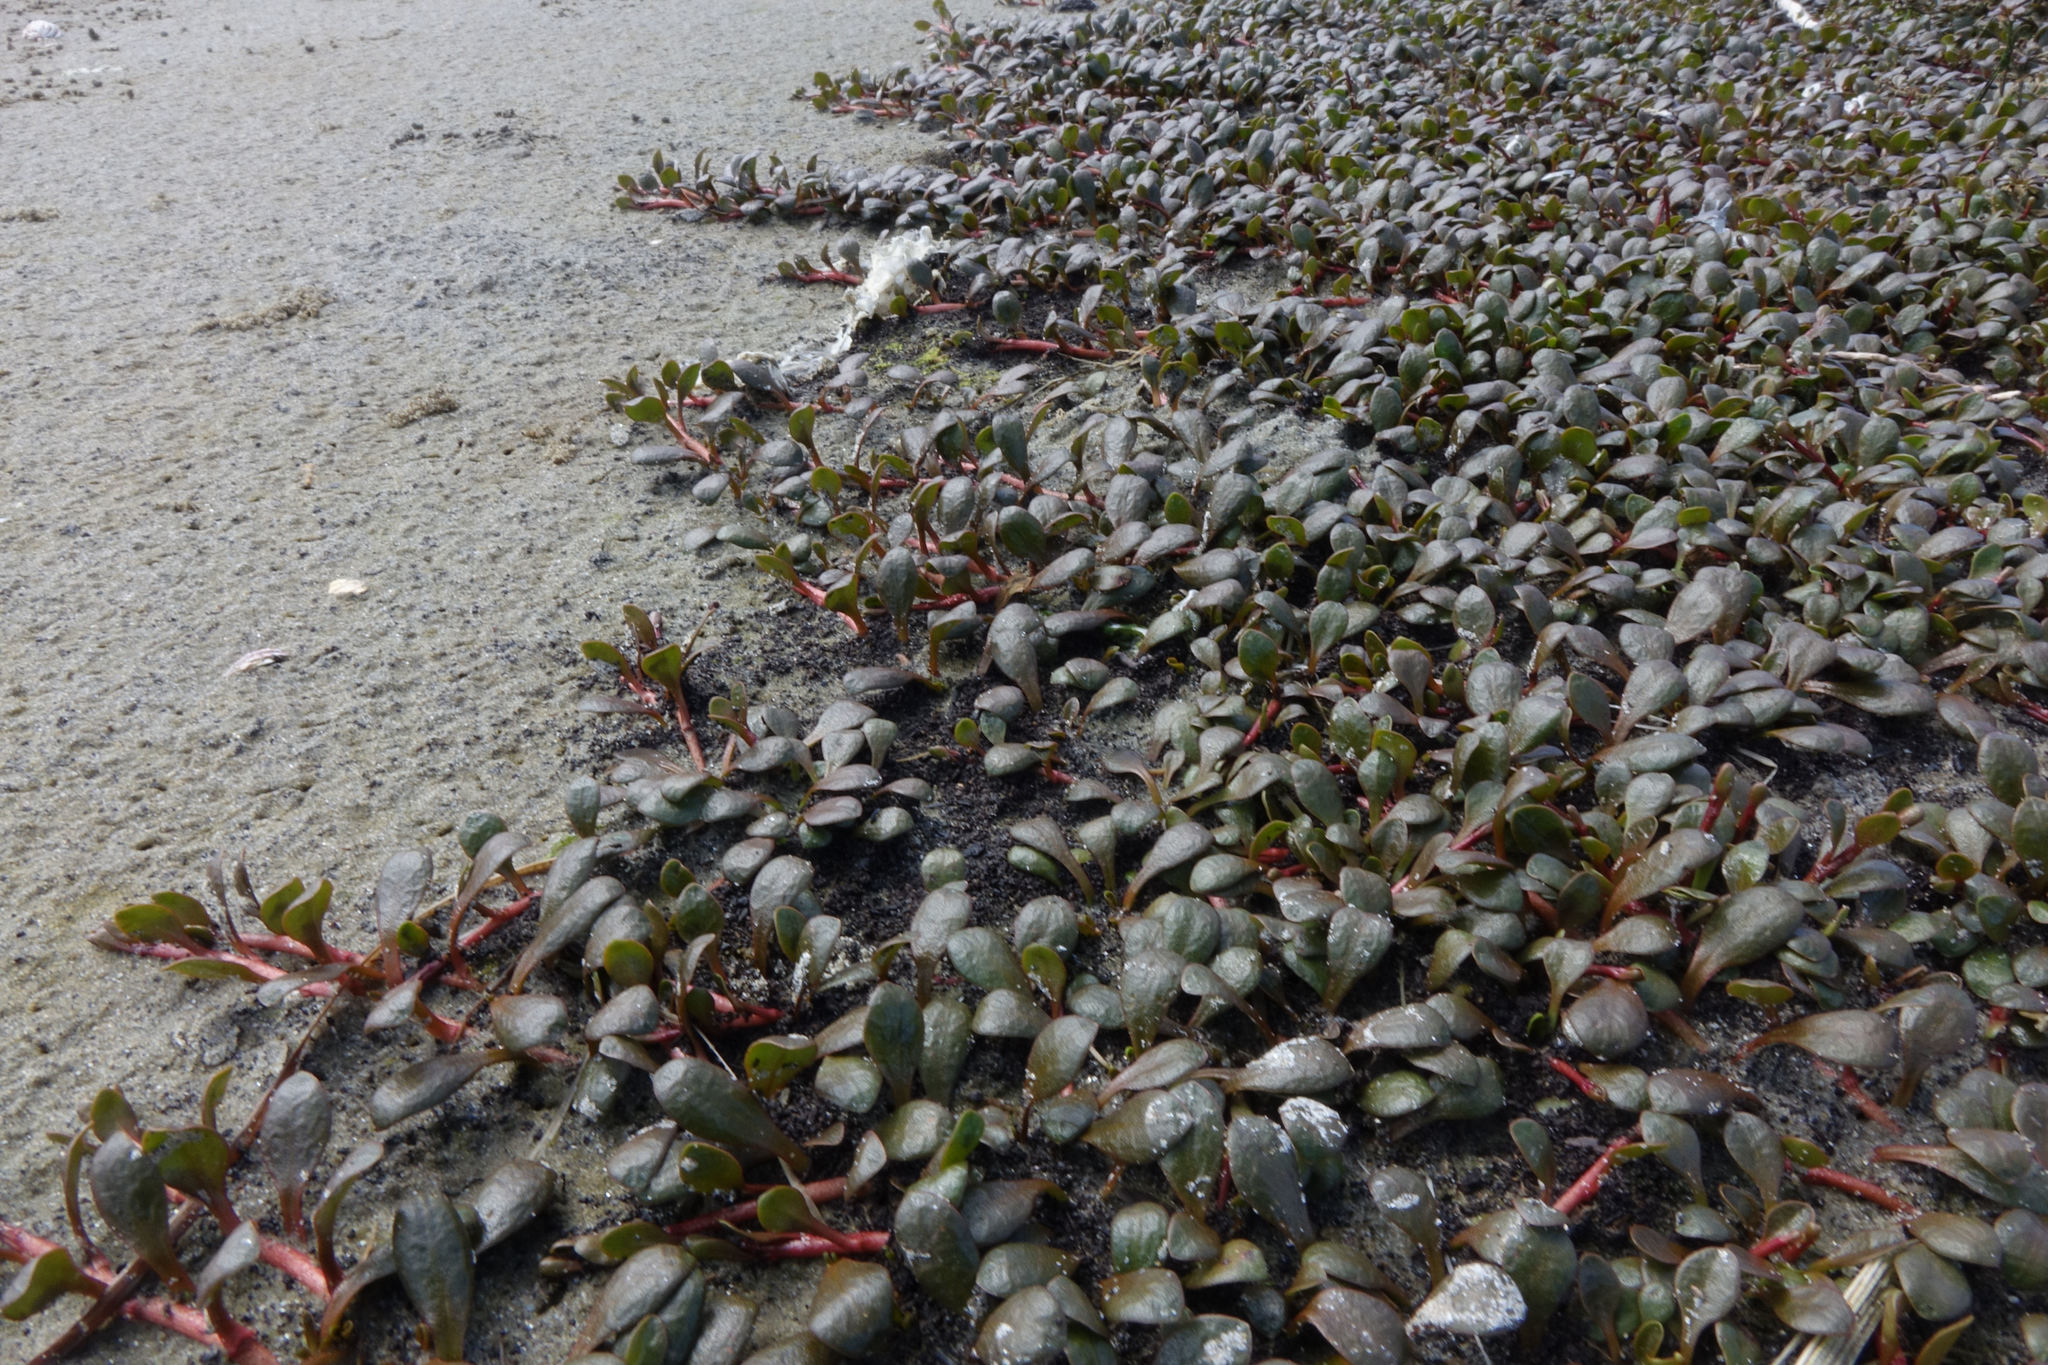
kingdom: Plantae
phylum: Tracheophyta
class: Magnoliopsida
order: Ericales
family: Primulaceae
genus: Samolus
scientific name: Samolus repens
